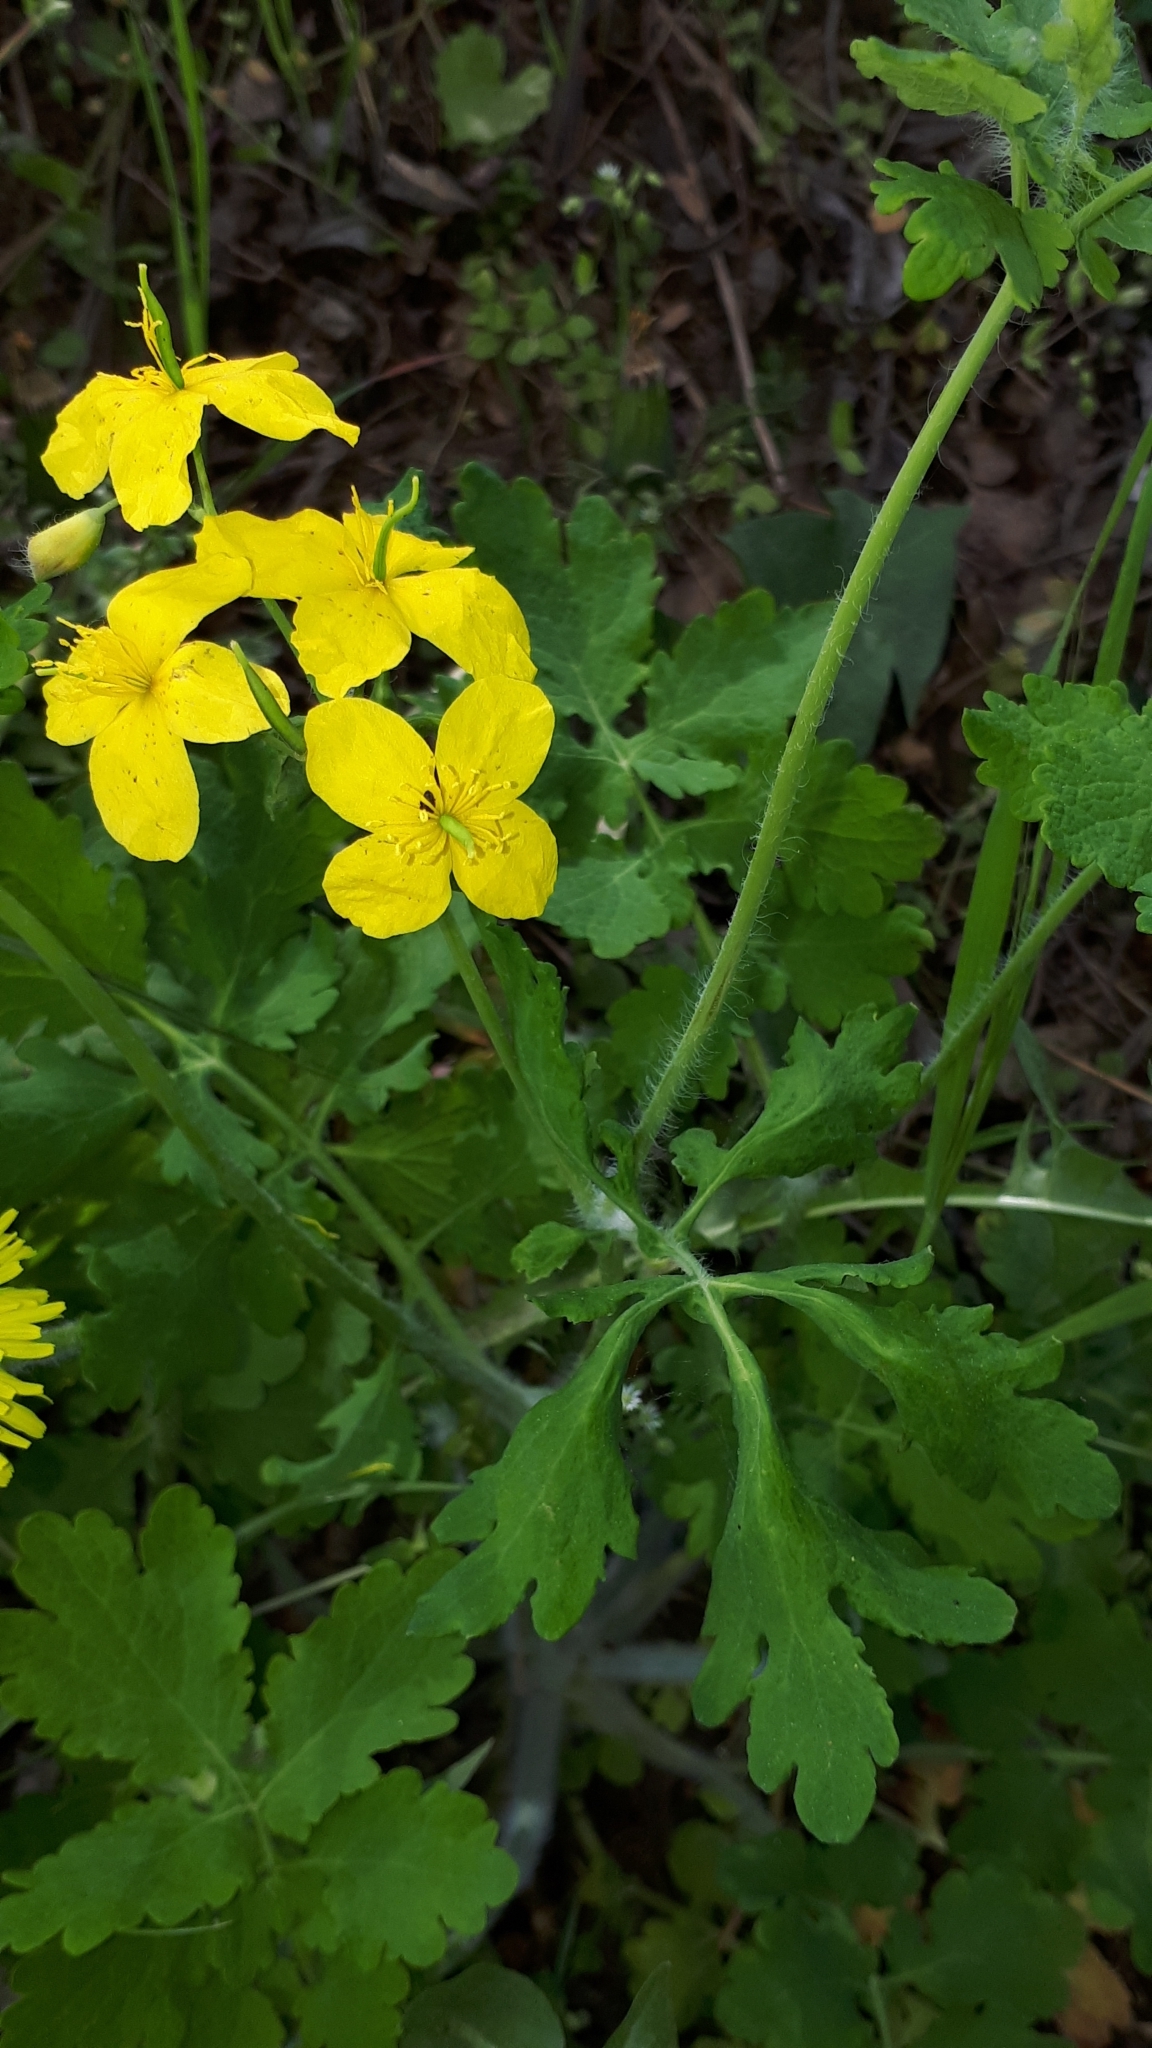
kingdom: Plantae
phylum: Tracheophyta
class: Magnoliopsida
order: Ranunculales
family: Papaveraceae
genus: Chelidonium
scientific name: Chelidonium majus
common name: Greater celandine
